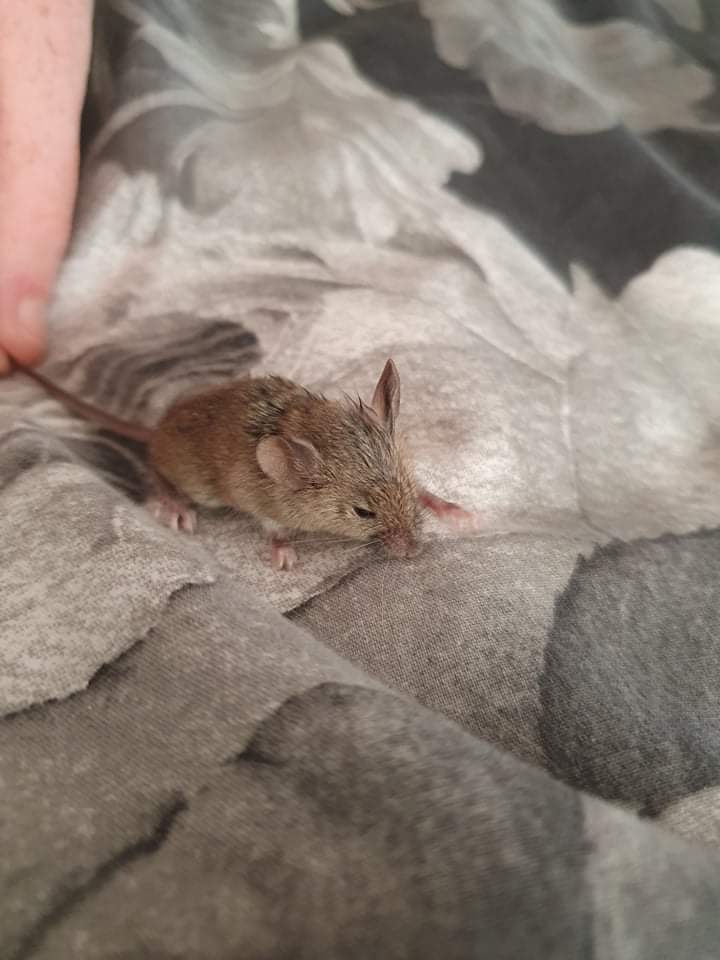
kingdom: Animalia
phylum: Chordata
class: Mammalia
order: Rodentia
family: Muridae
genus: Mus
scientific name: Mus musculus
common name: House mouse
